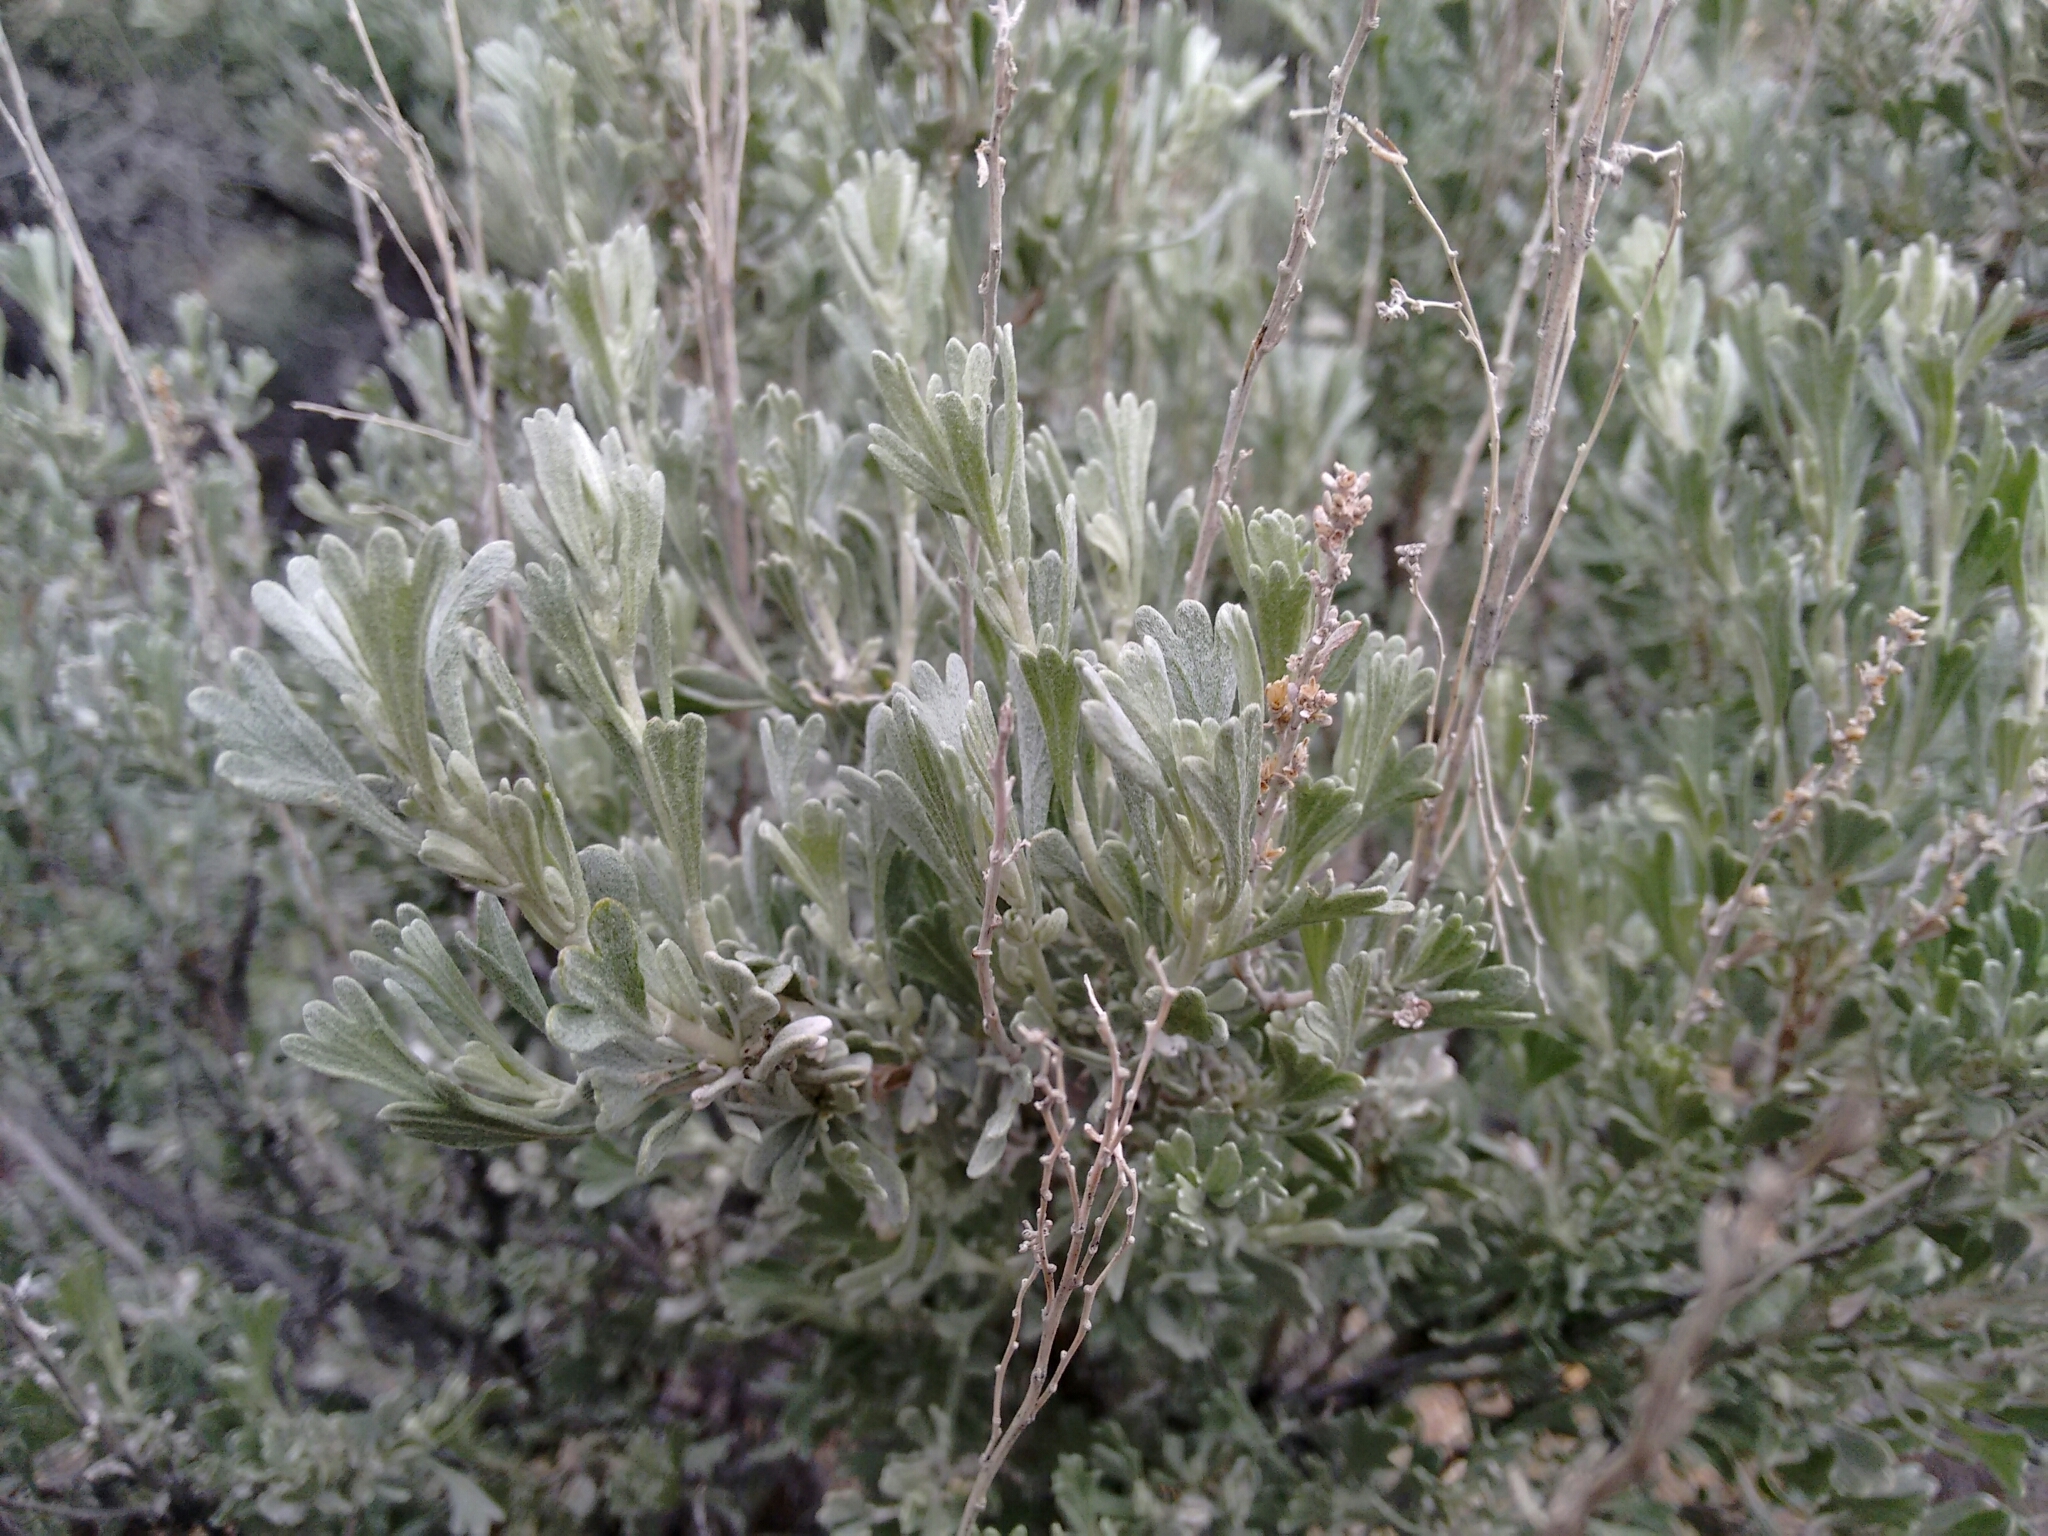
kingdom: Plantae
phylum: Tracheophyta
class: Magnoliopsida
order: Asterales
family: Asteraceae
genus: Artemisia
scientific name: Artemisia tridentata
